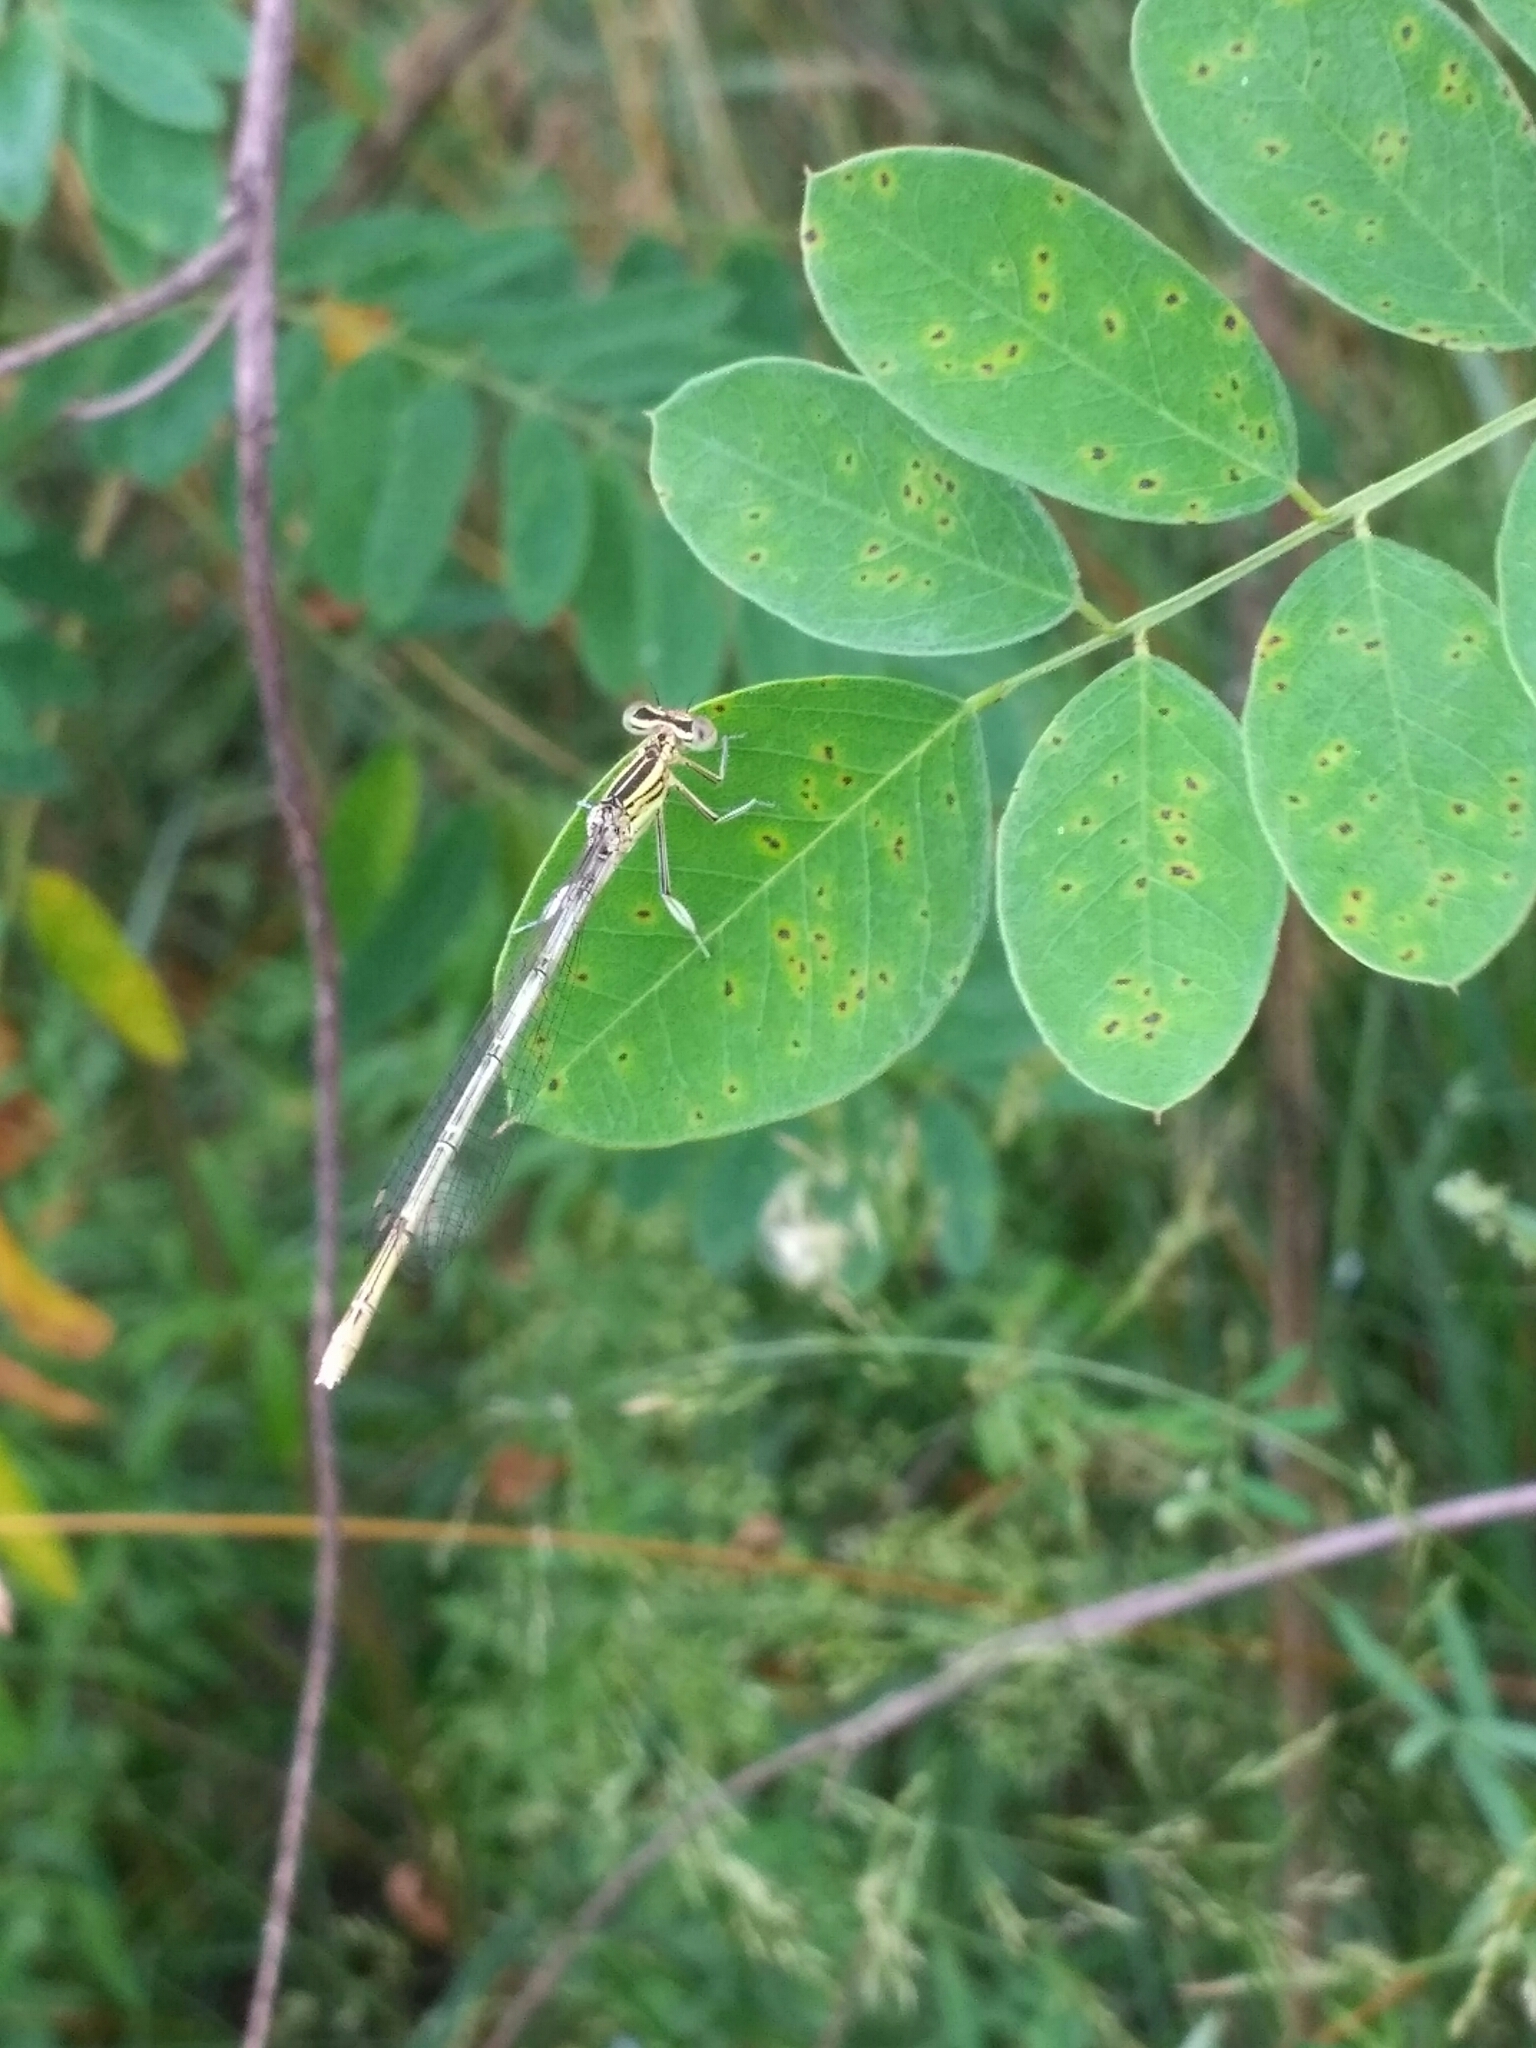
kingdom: Animalia
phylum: Arthropoda
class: Insecta
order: Odonata
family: Platycnemididae
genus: Platycnemis
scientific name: Platycnemis pennipes
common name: White-legged damselfly
